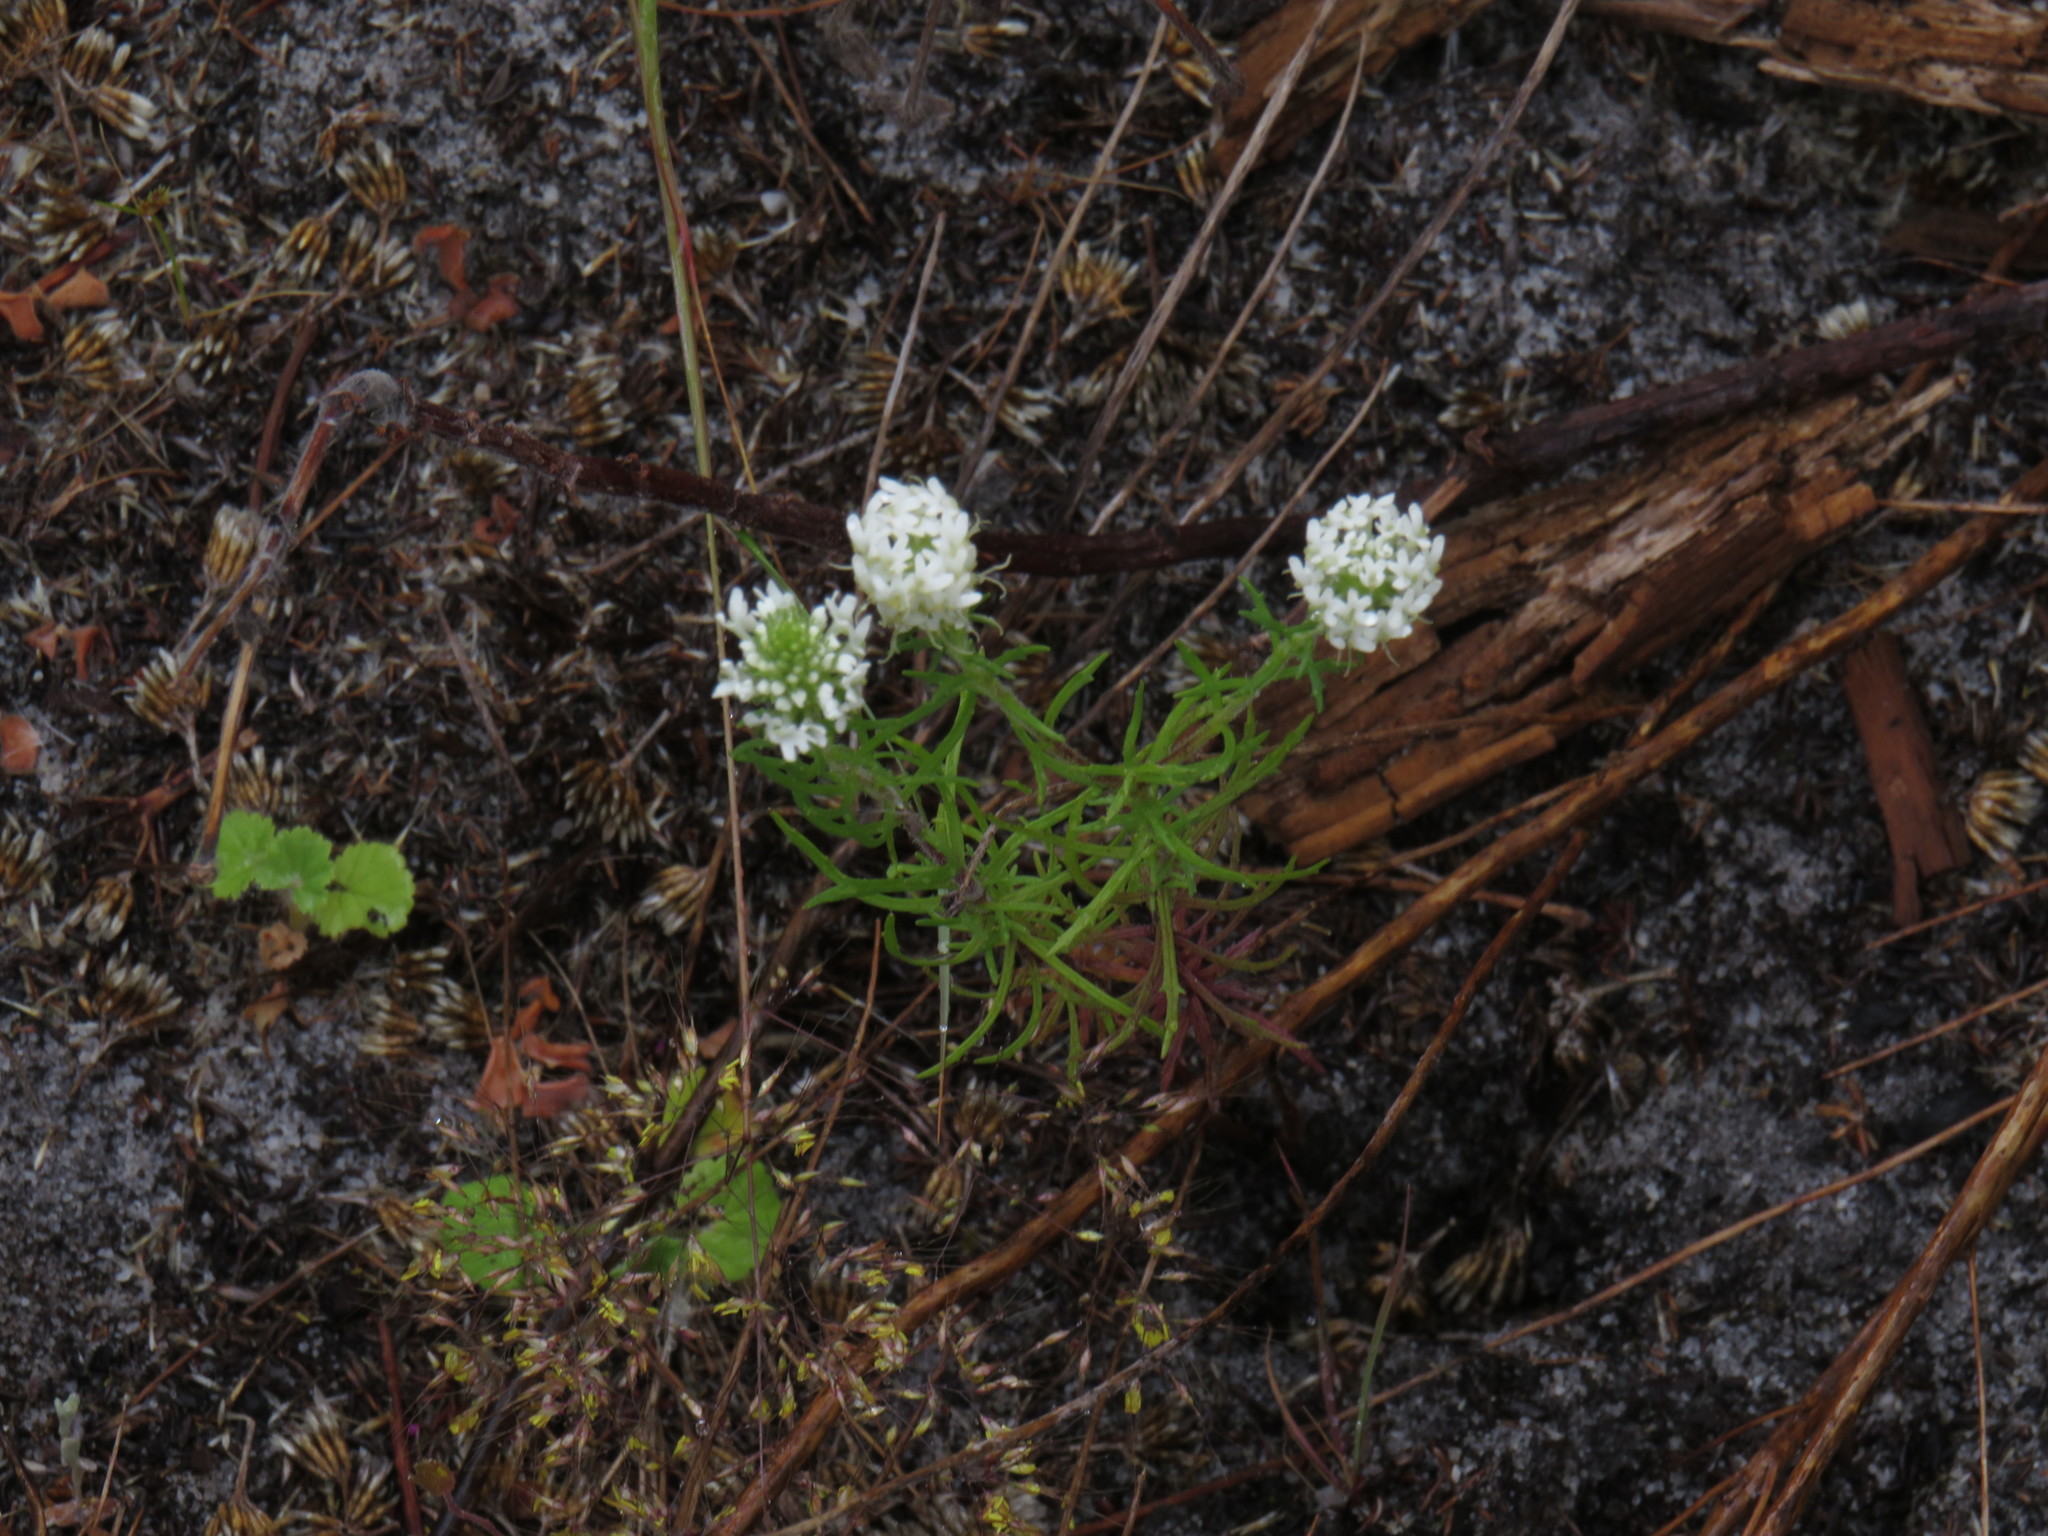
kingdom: Plantae
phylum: Tracheophyta
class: Magnoliopsida
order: Lamiales
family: Scrophulariaceae
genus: Dischisma
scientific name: Dischisma ciliatum
